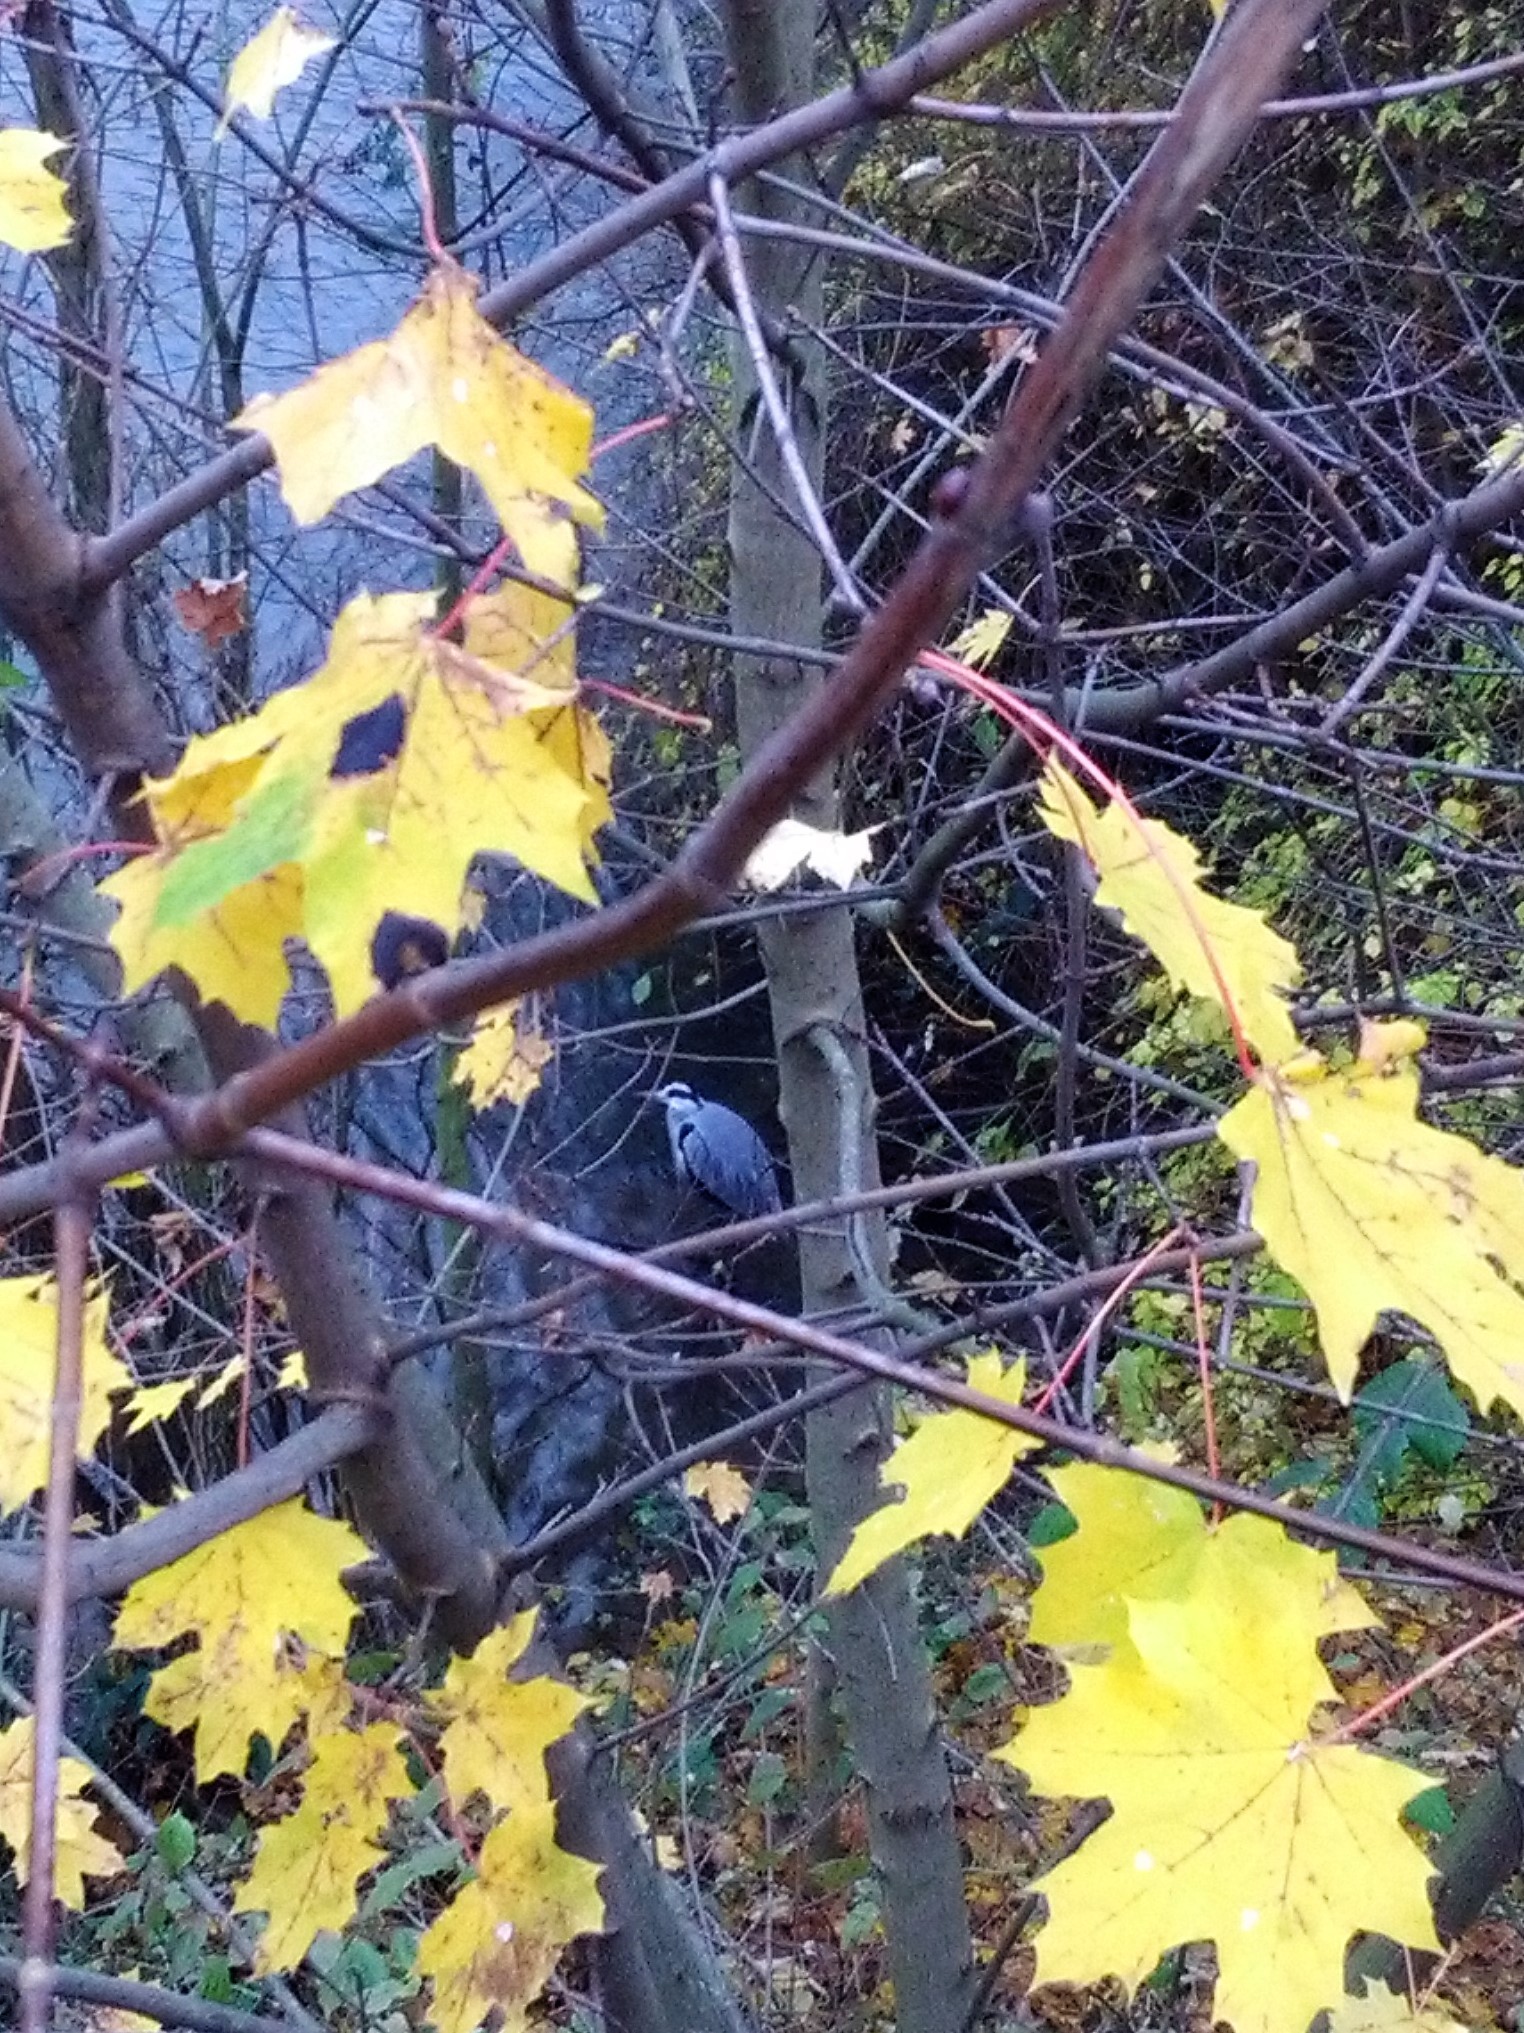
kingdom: Animalia
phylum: Chordata
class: Aves
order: Pelecaniformes
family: Ardeidae
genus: Ardea
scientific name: Ardea cinerea
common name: Grey heron
